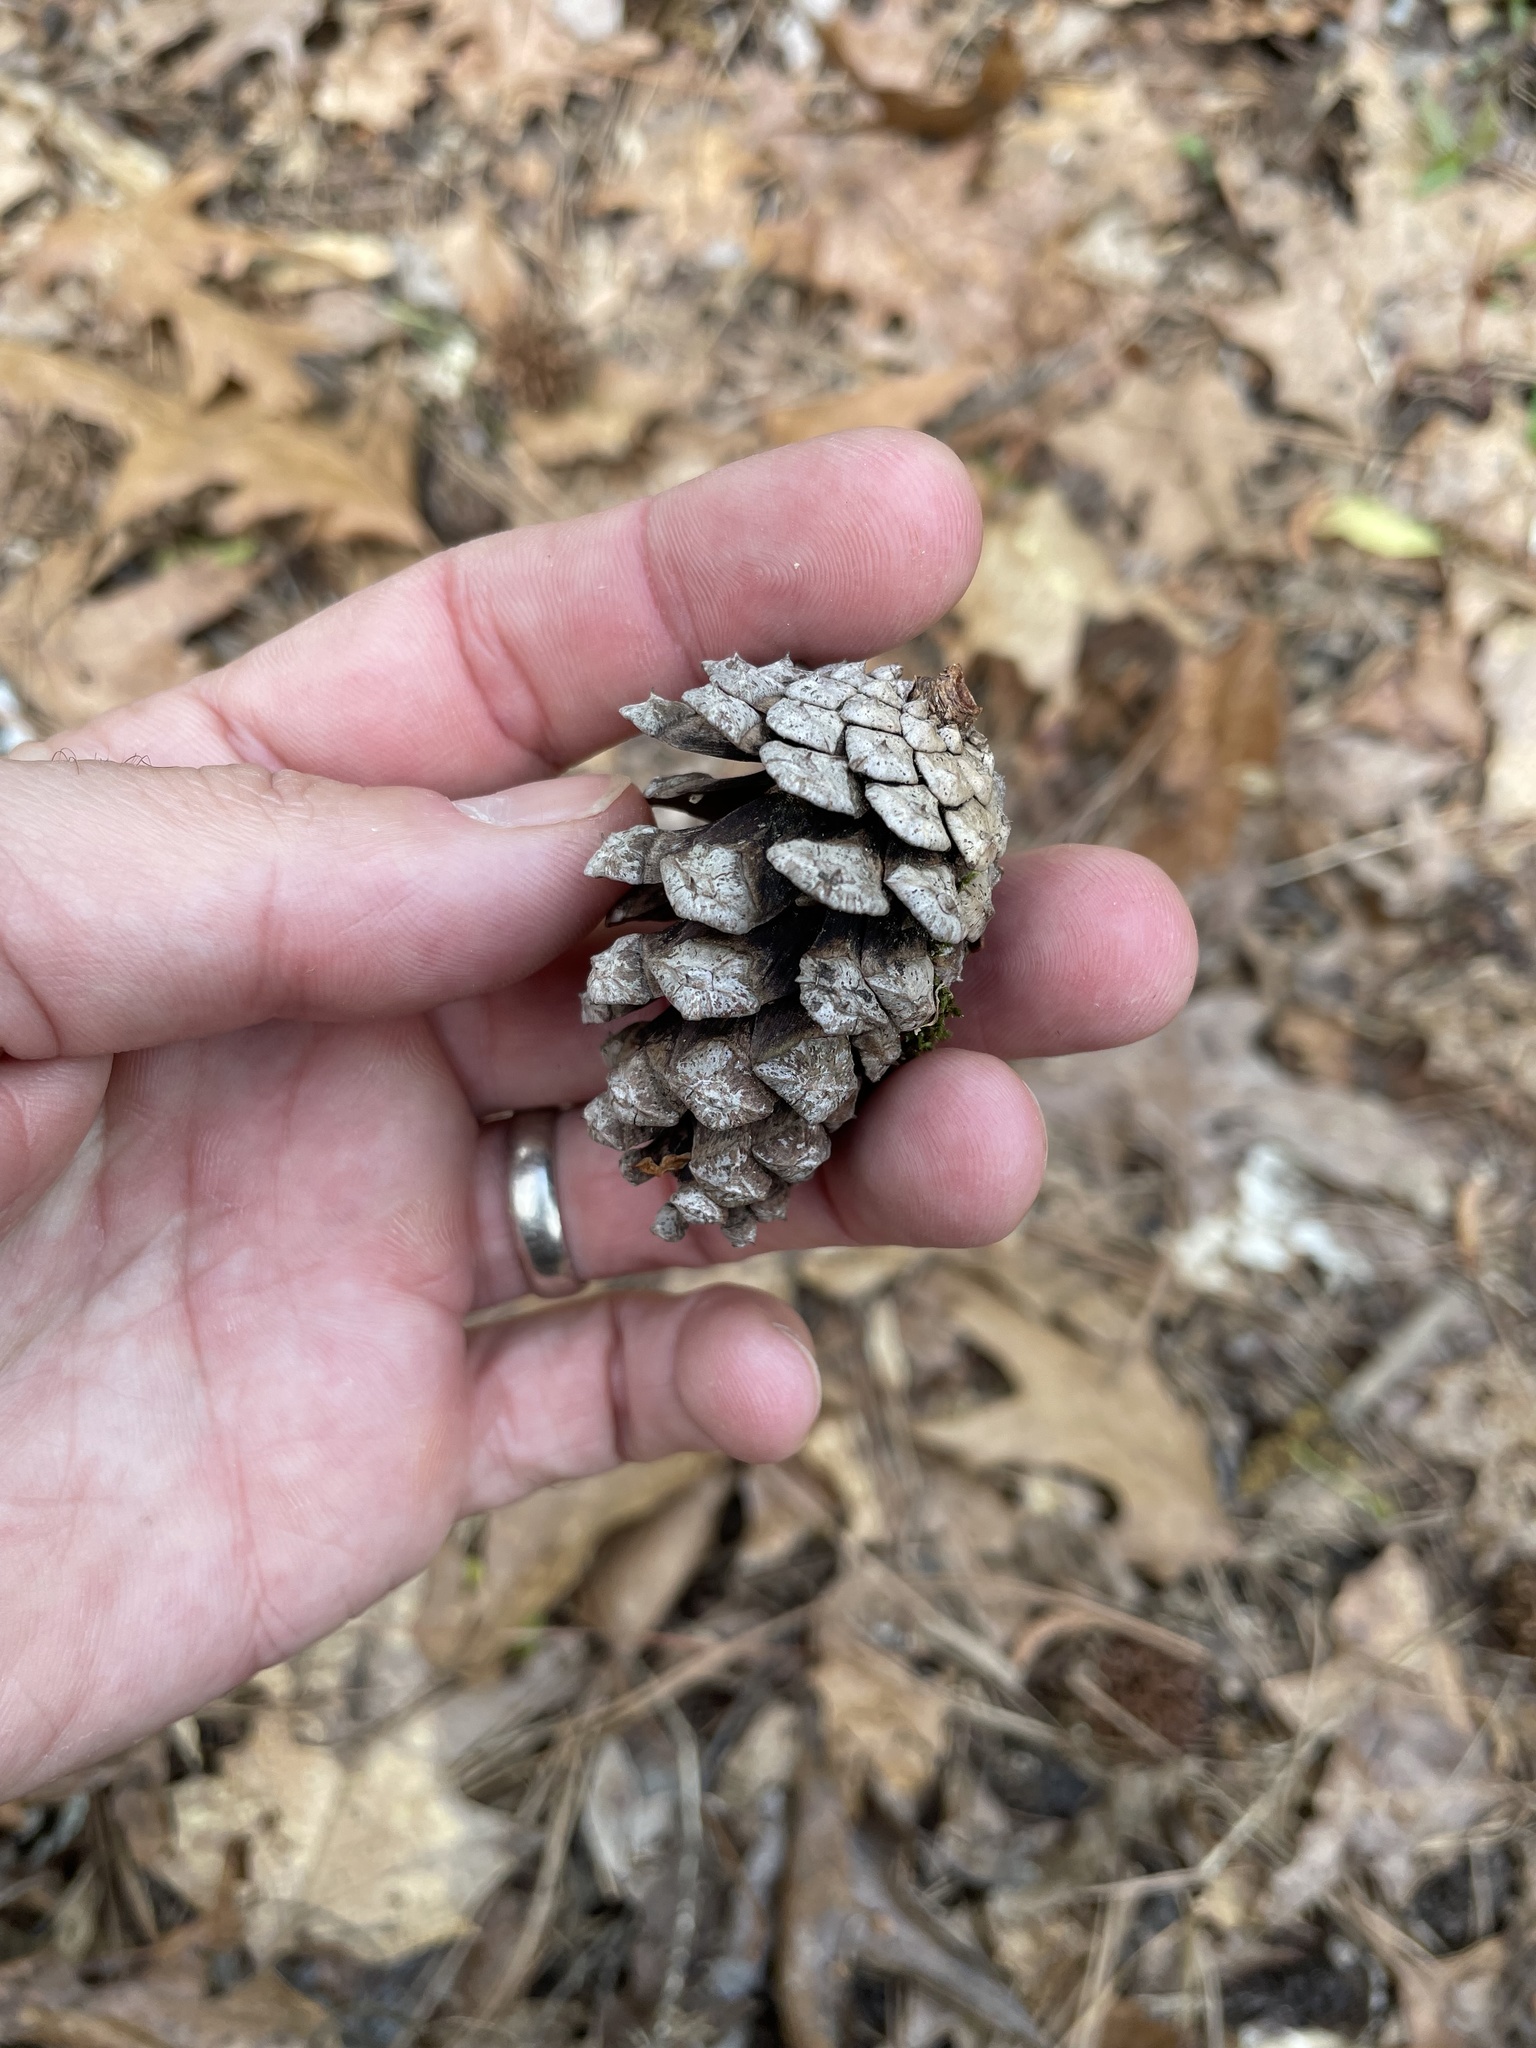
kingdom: Plantae
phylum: Tracheophyta
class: Pinopsida
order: Pinales
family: Pinaceae
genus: Pinus
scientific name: Pinus echinata
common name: Shortleaf pine
